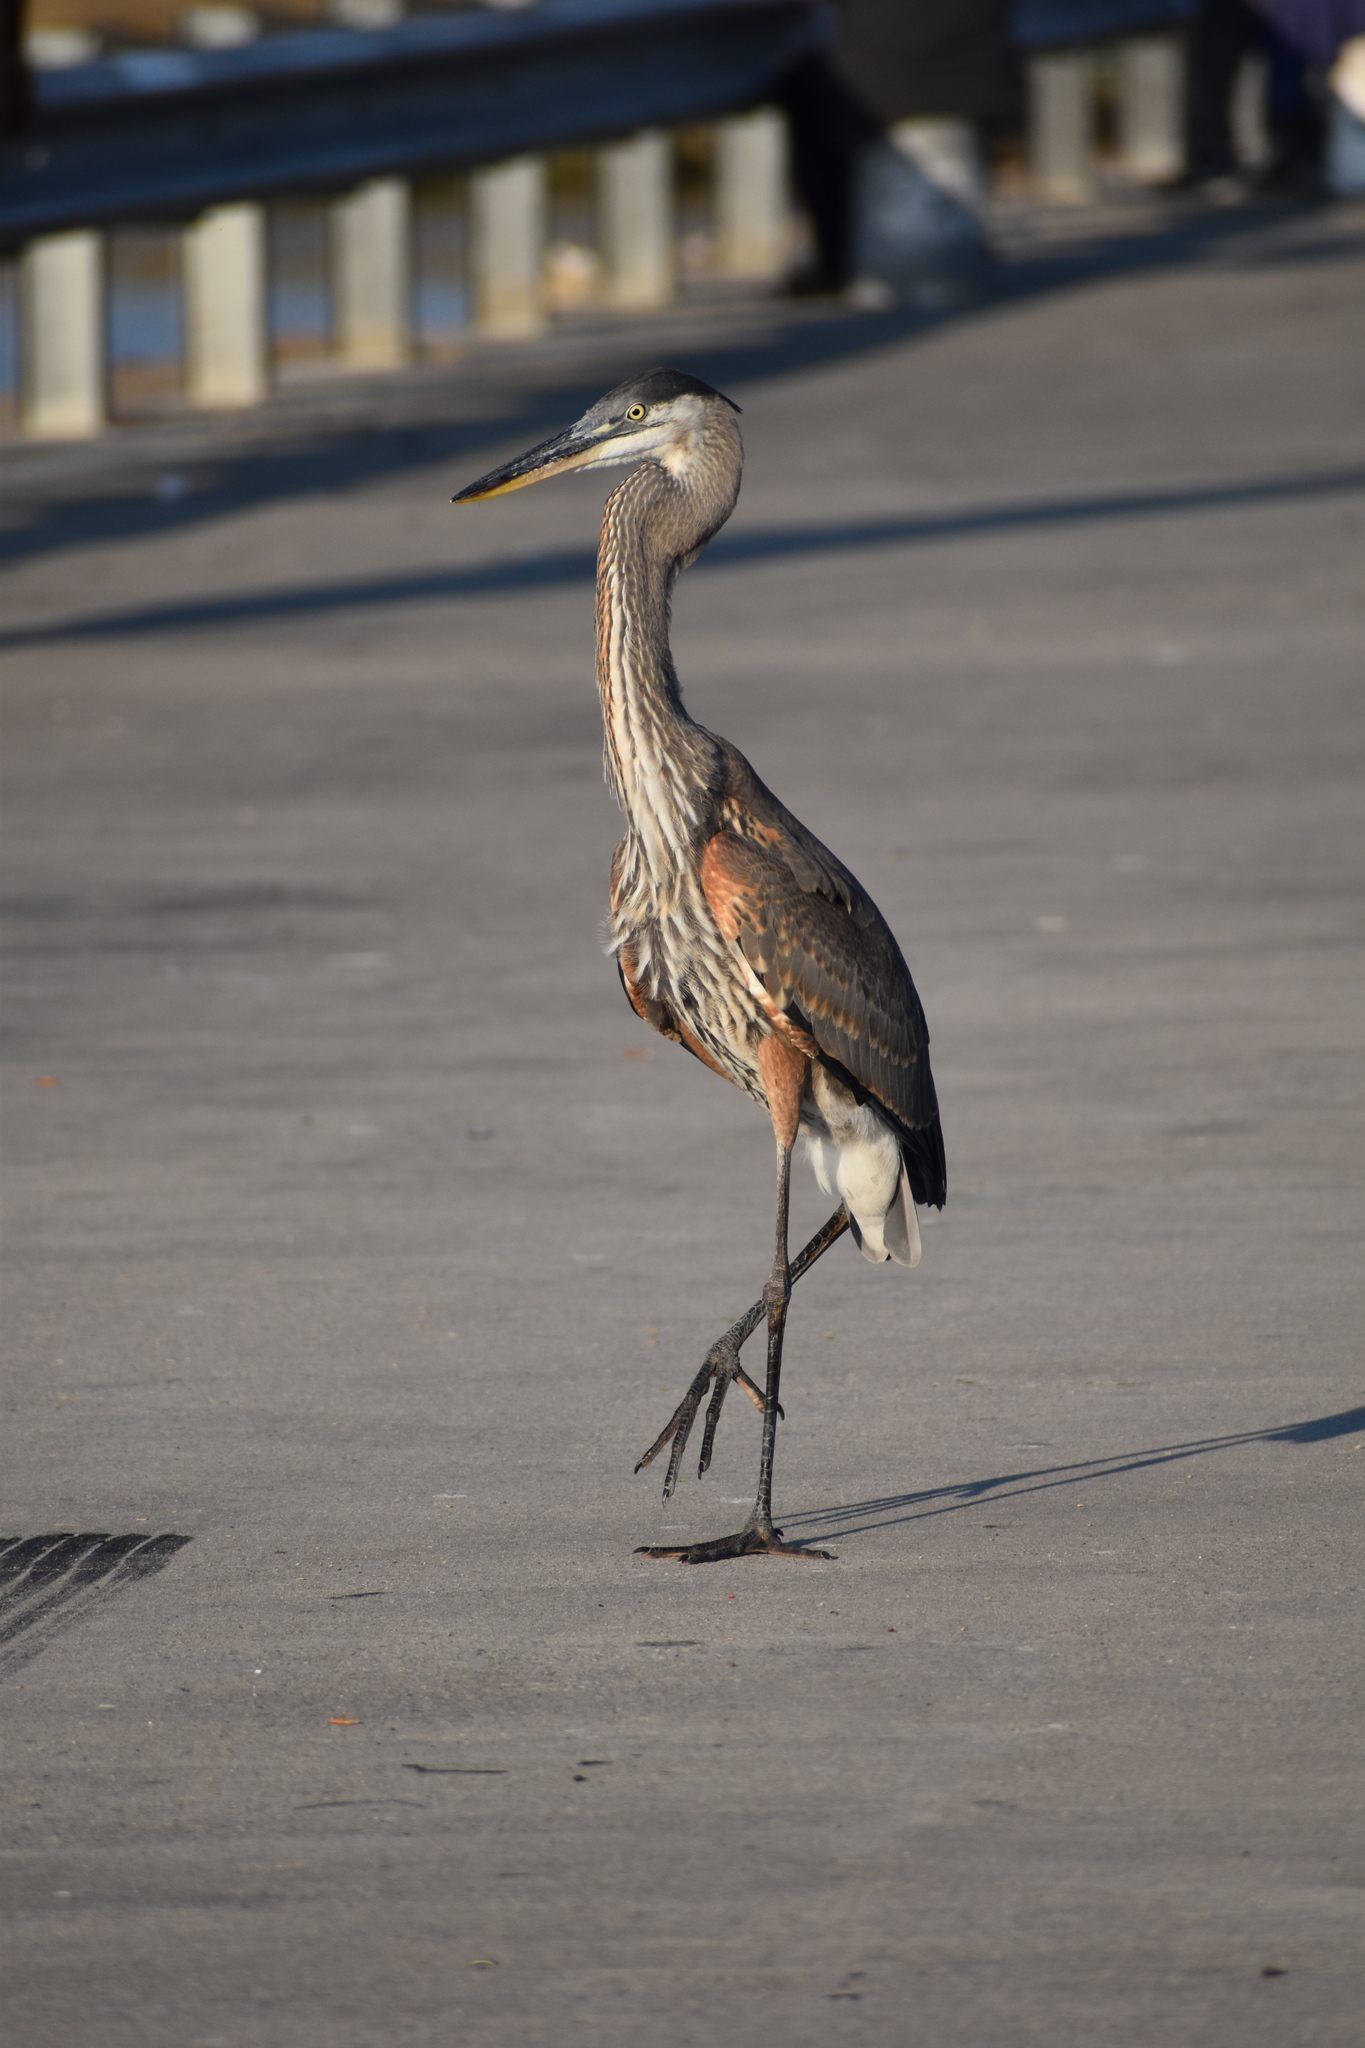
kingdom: Animalia
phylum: Chordata
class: Aves
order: Pelecaniformes
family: Ardeidae
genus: Ardea
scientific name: Ardea herodias
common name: Great blue heron
